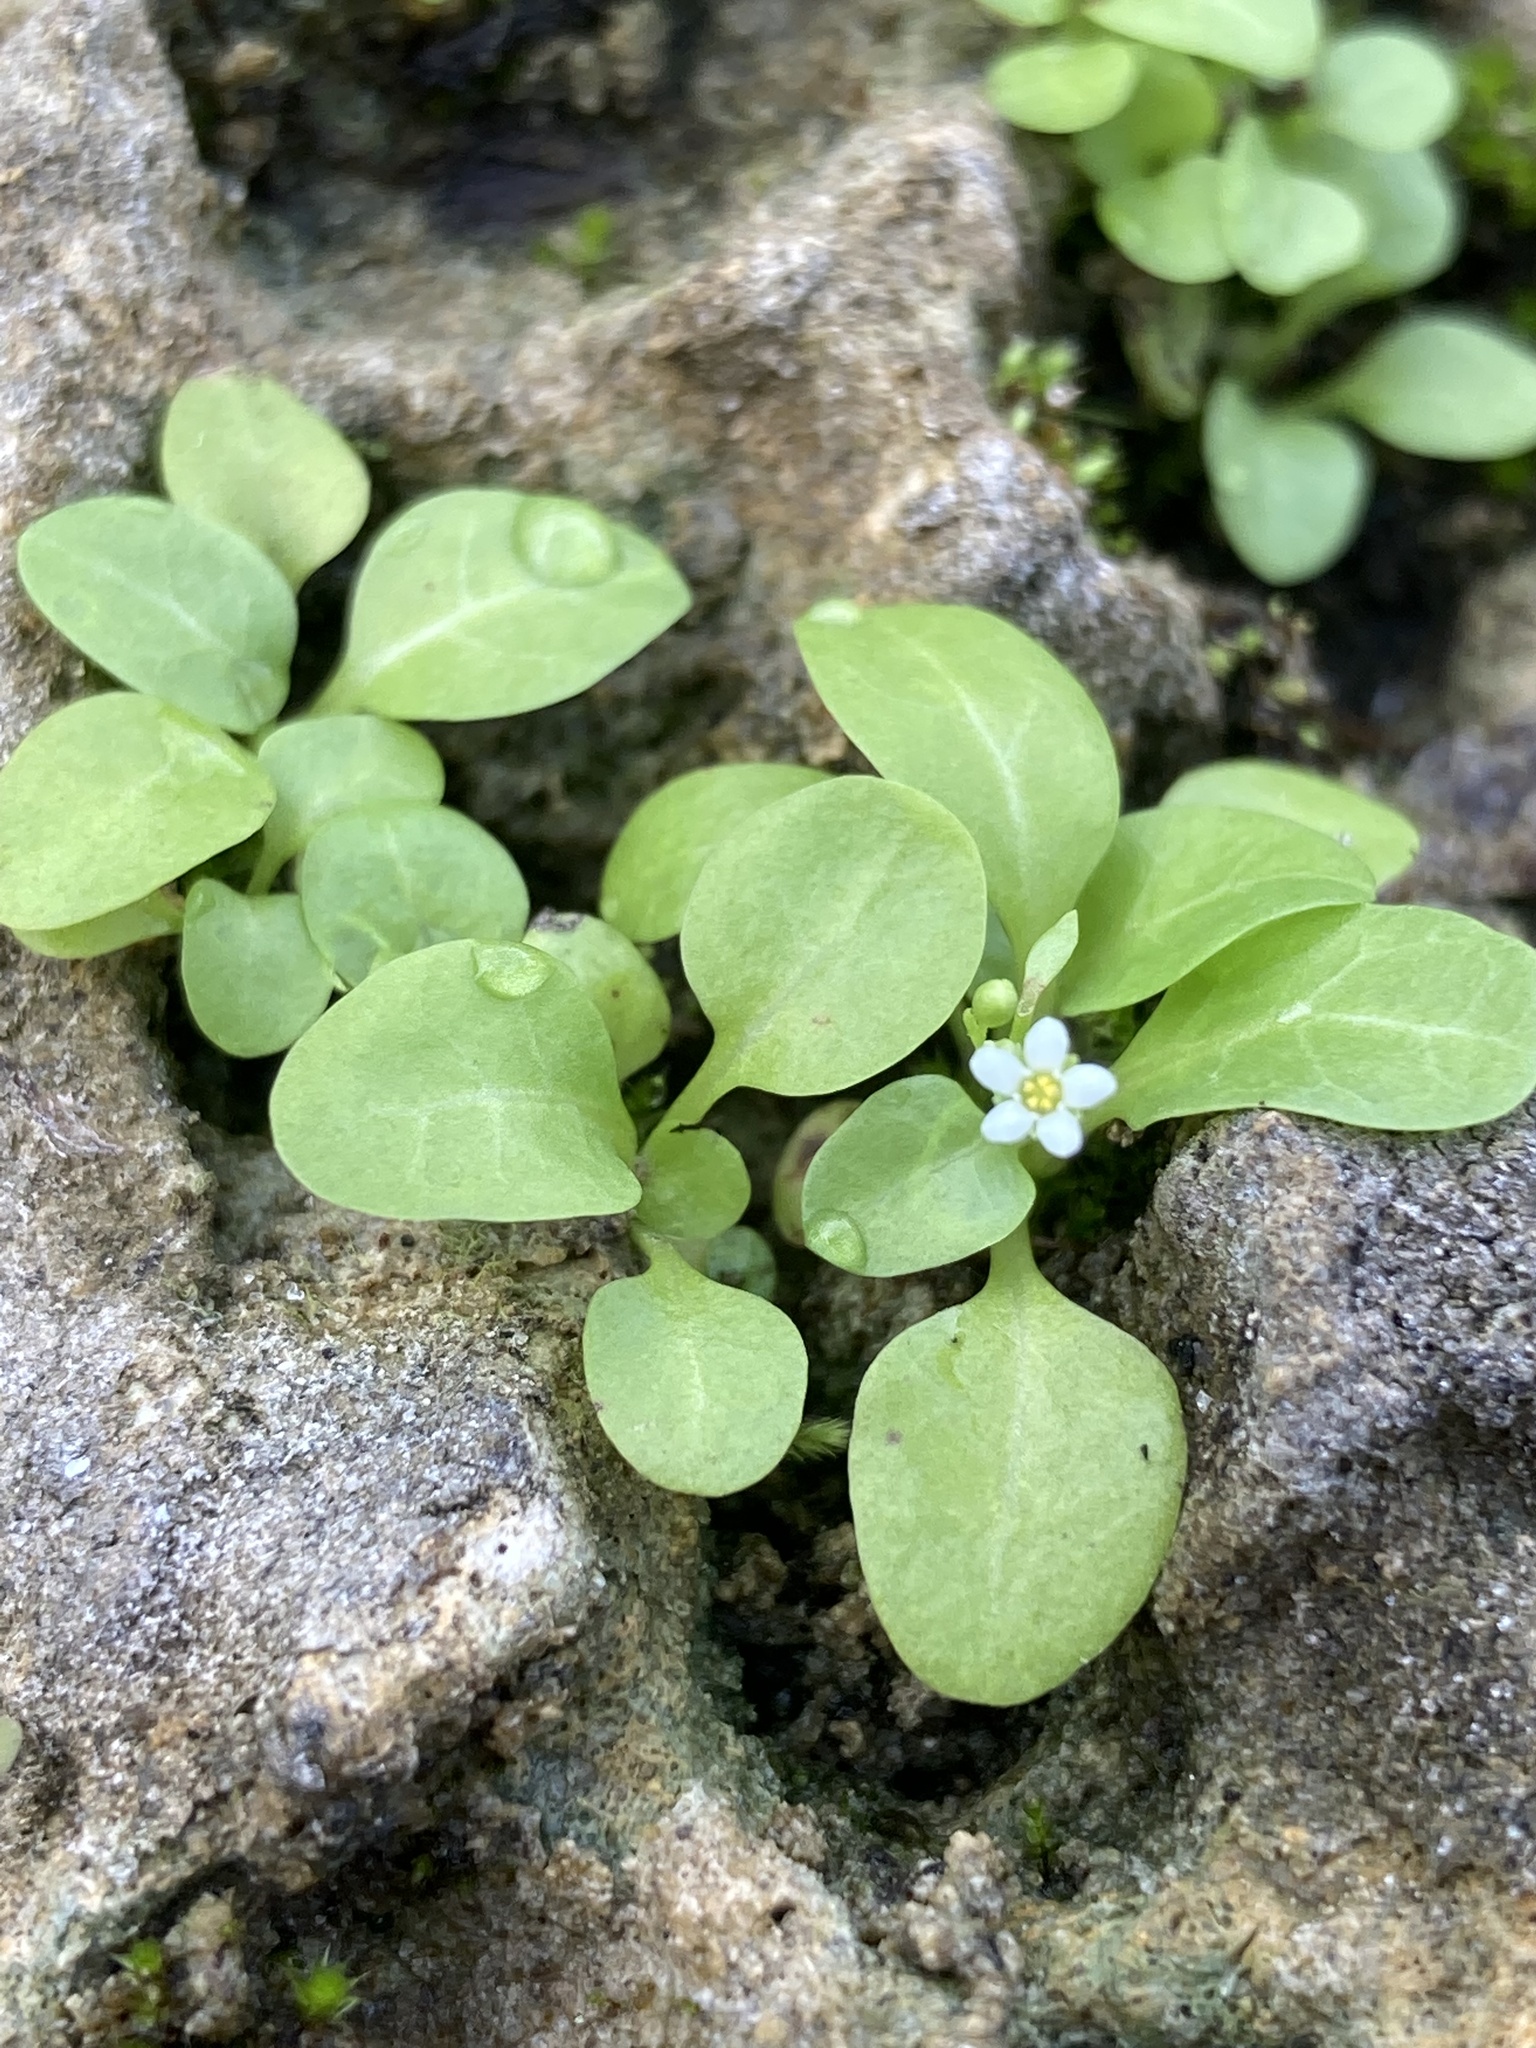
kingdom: Plantae
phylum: Tracheophyta
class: Magnoliopsida
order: Ericales
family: Primulaceae
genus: Samolus
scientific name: Samolus parviflorus
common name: False water pimpernel
